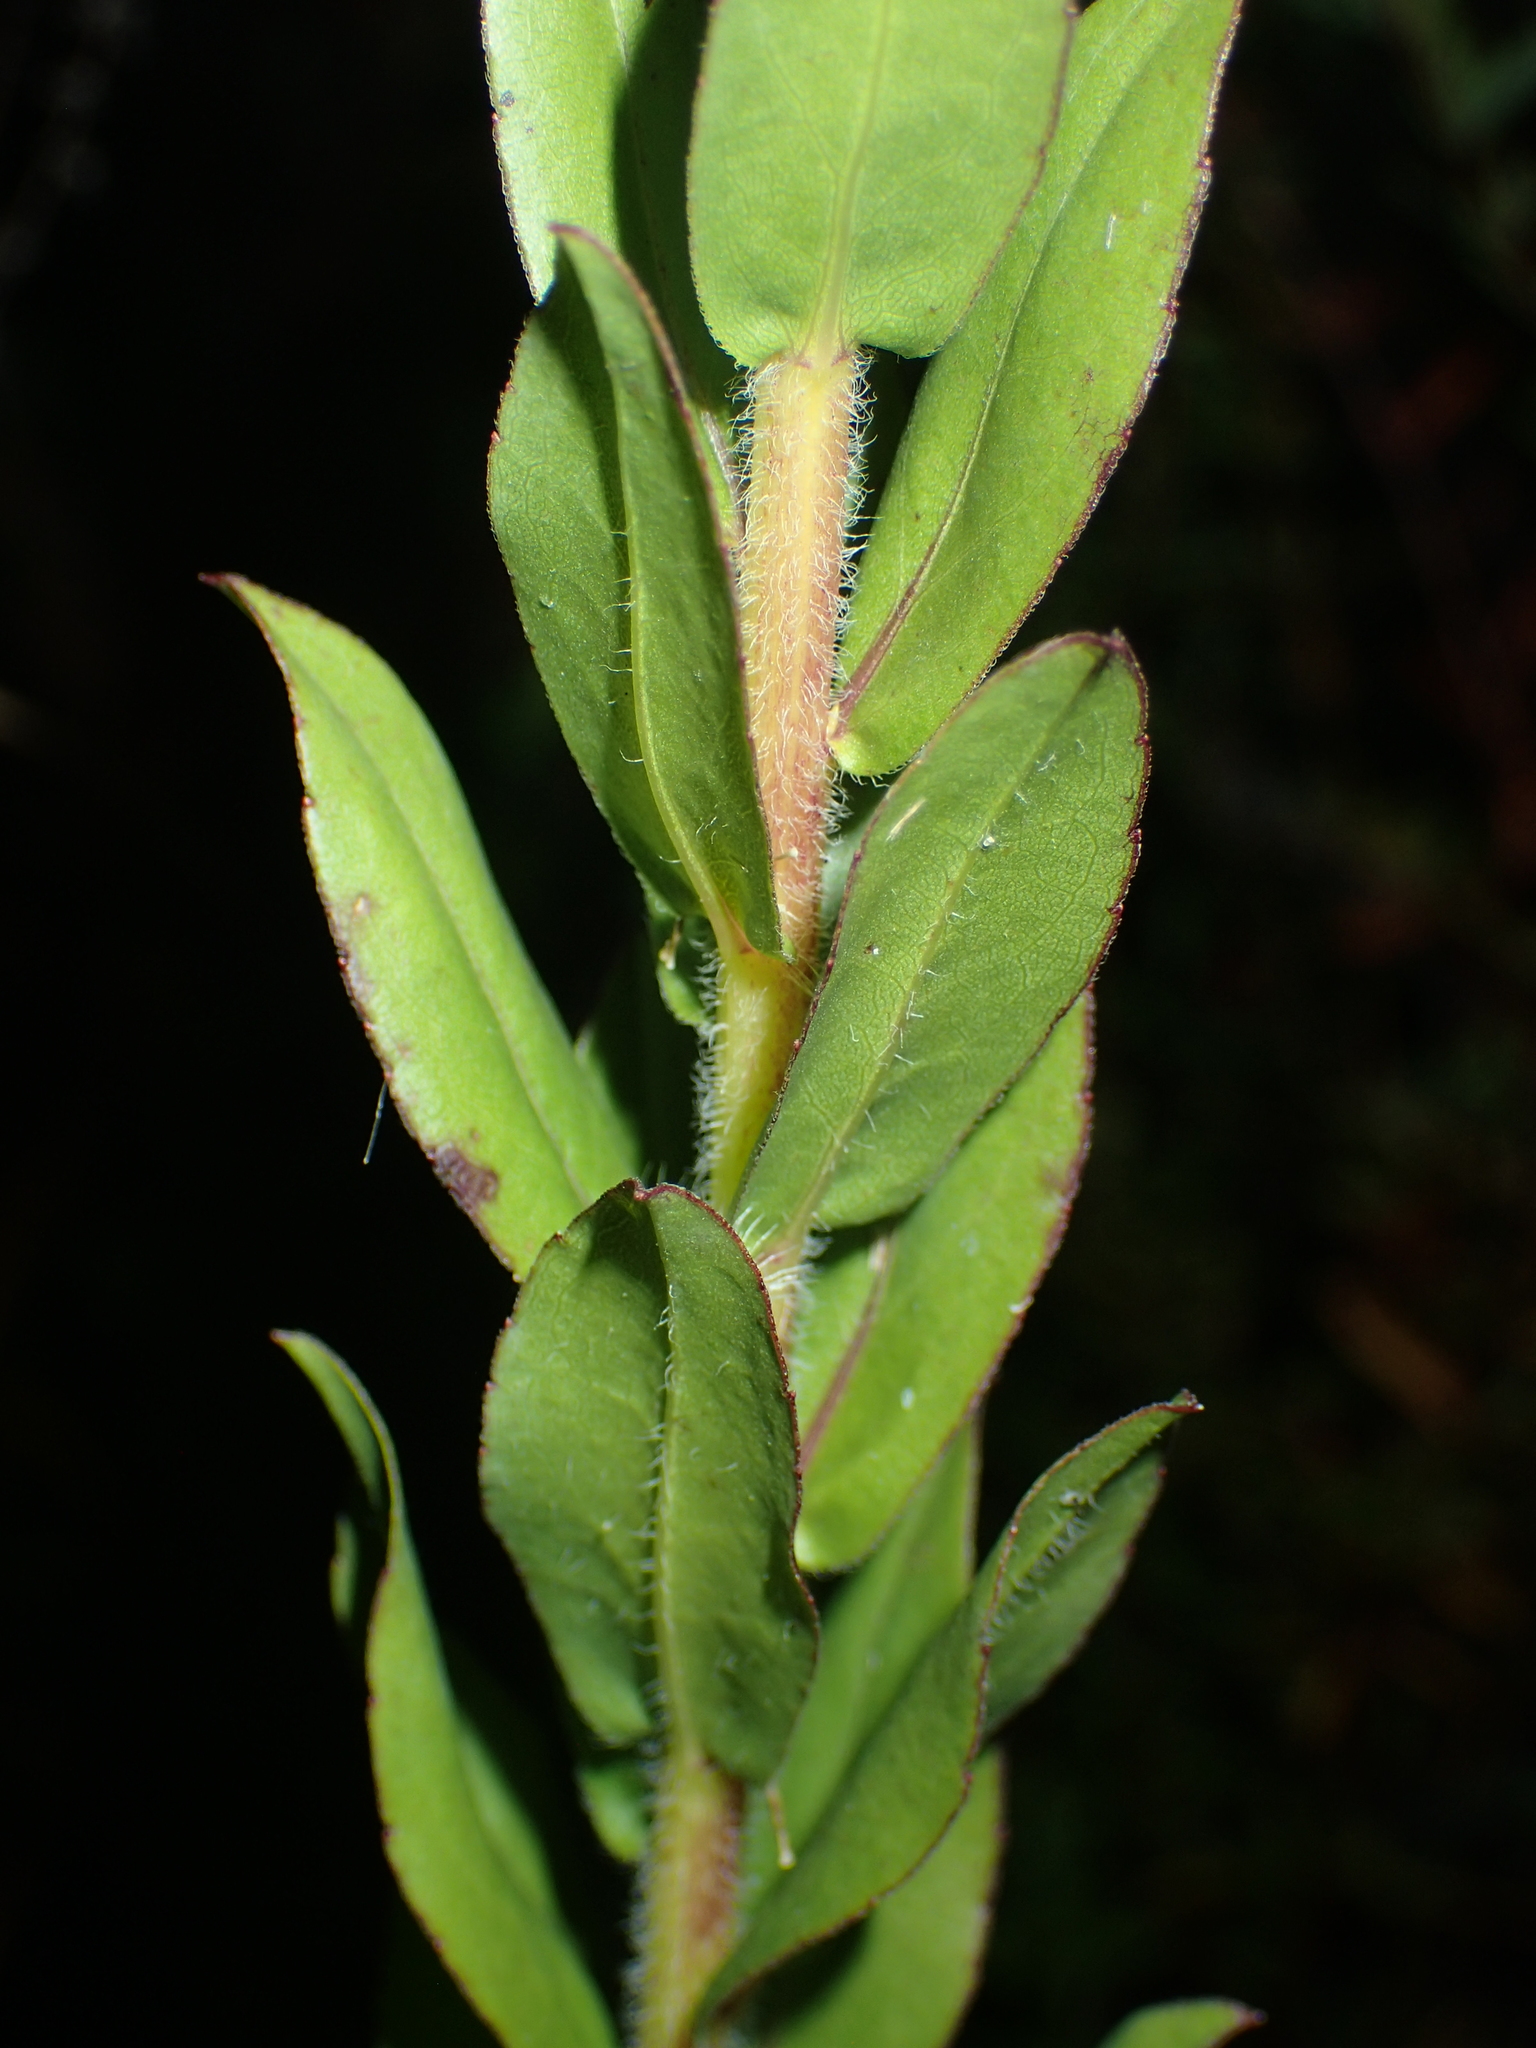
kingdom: Plantae
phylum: Tracheophyta
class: Magnoliopsida
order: Asterales
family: Asteraceae
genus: Solidago
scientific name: Solidago fistulosa
